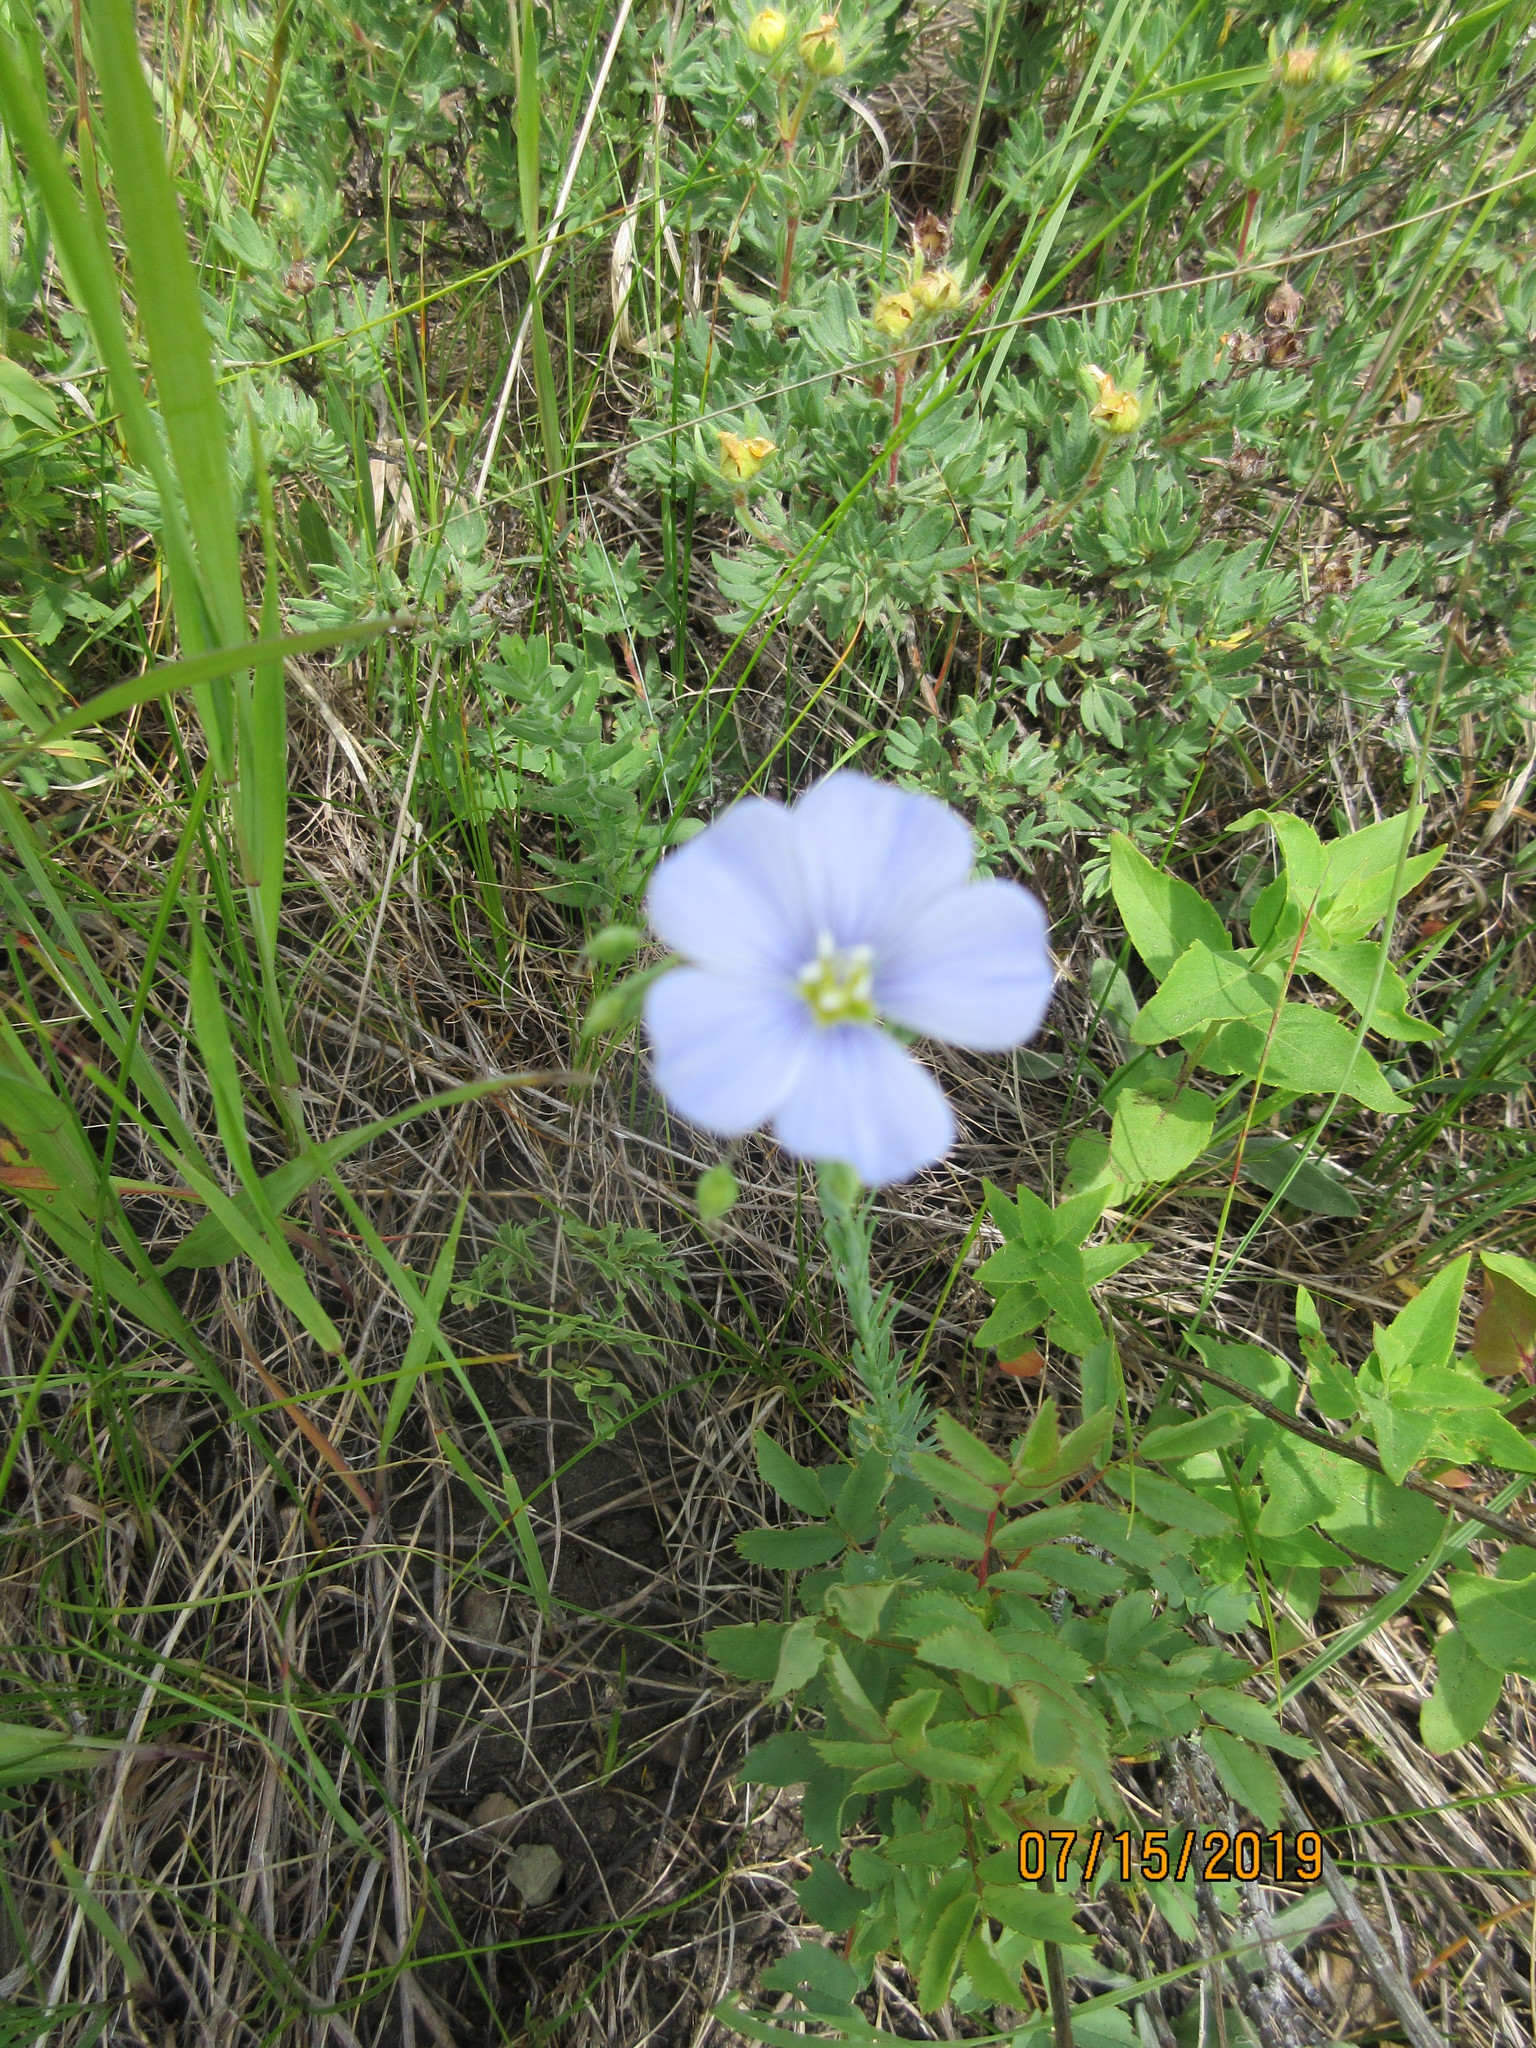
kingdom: Plantae
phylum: Tracheophyta
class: Magnoliopsida
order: Malpighiales
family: Linaceae
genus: Linum
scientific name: Linum lewisii
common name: Prairie flax
